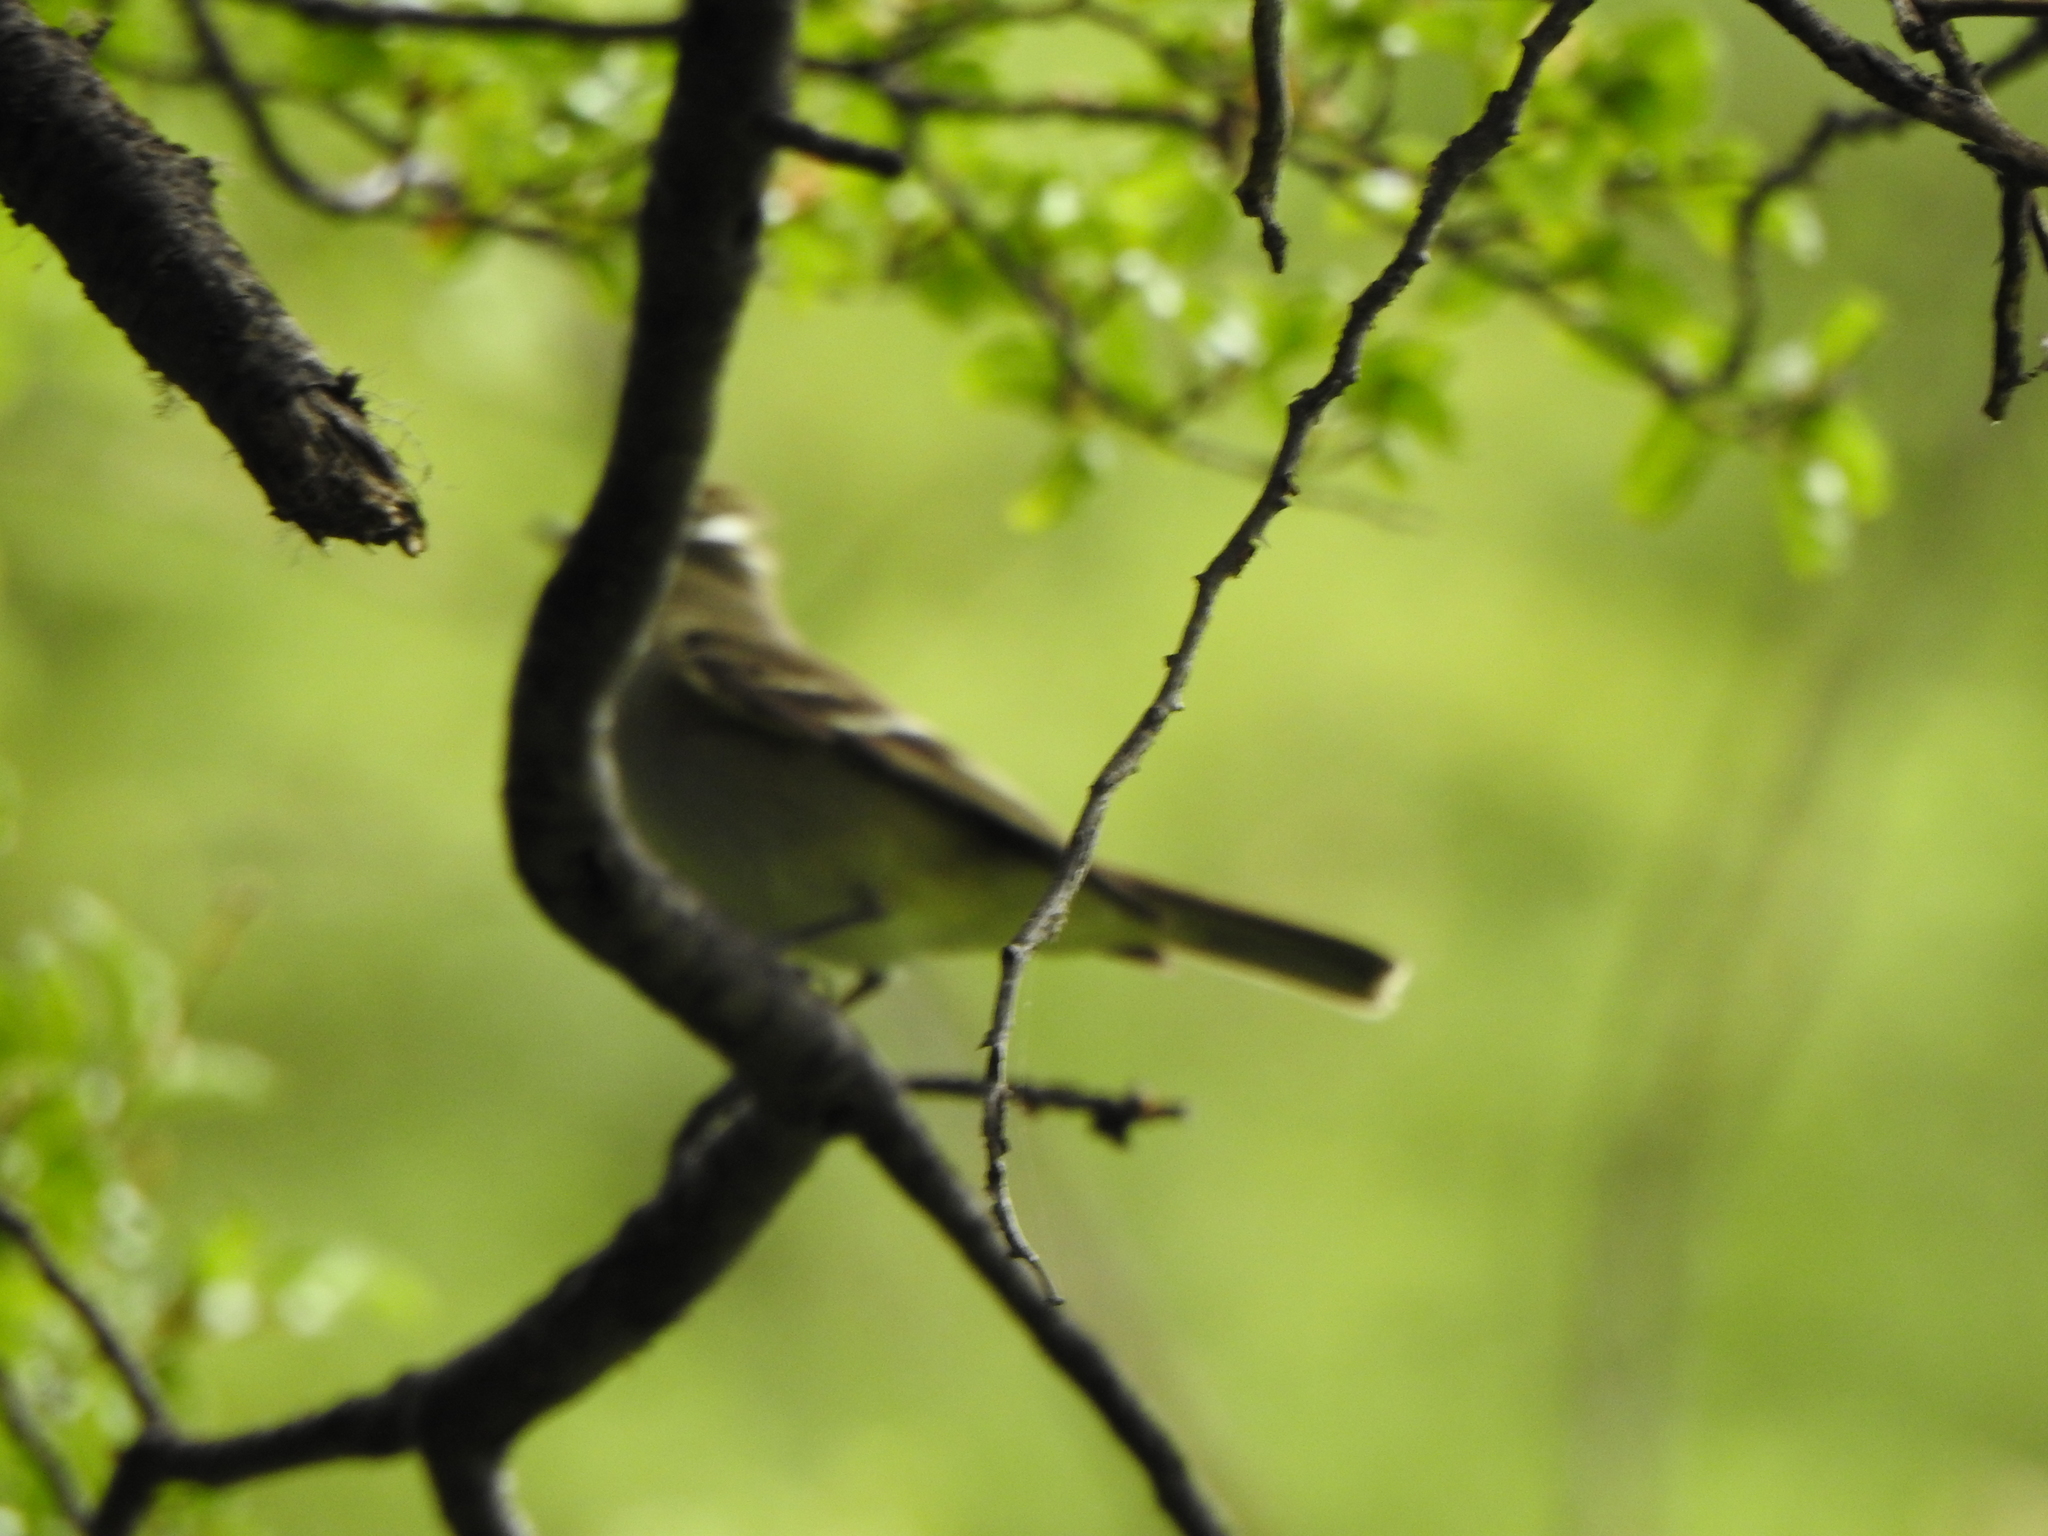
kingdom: Animalia
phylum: Chordata
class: Aves
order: Passeriformes
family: Tyrannidae
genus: Elaenia
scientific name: Elaenia albiceps
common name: White-crested elaenia
